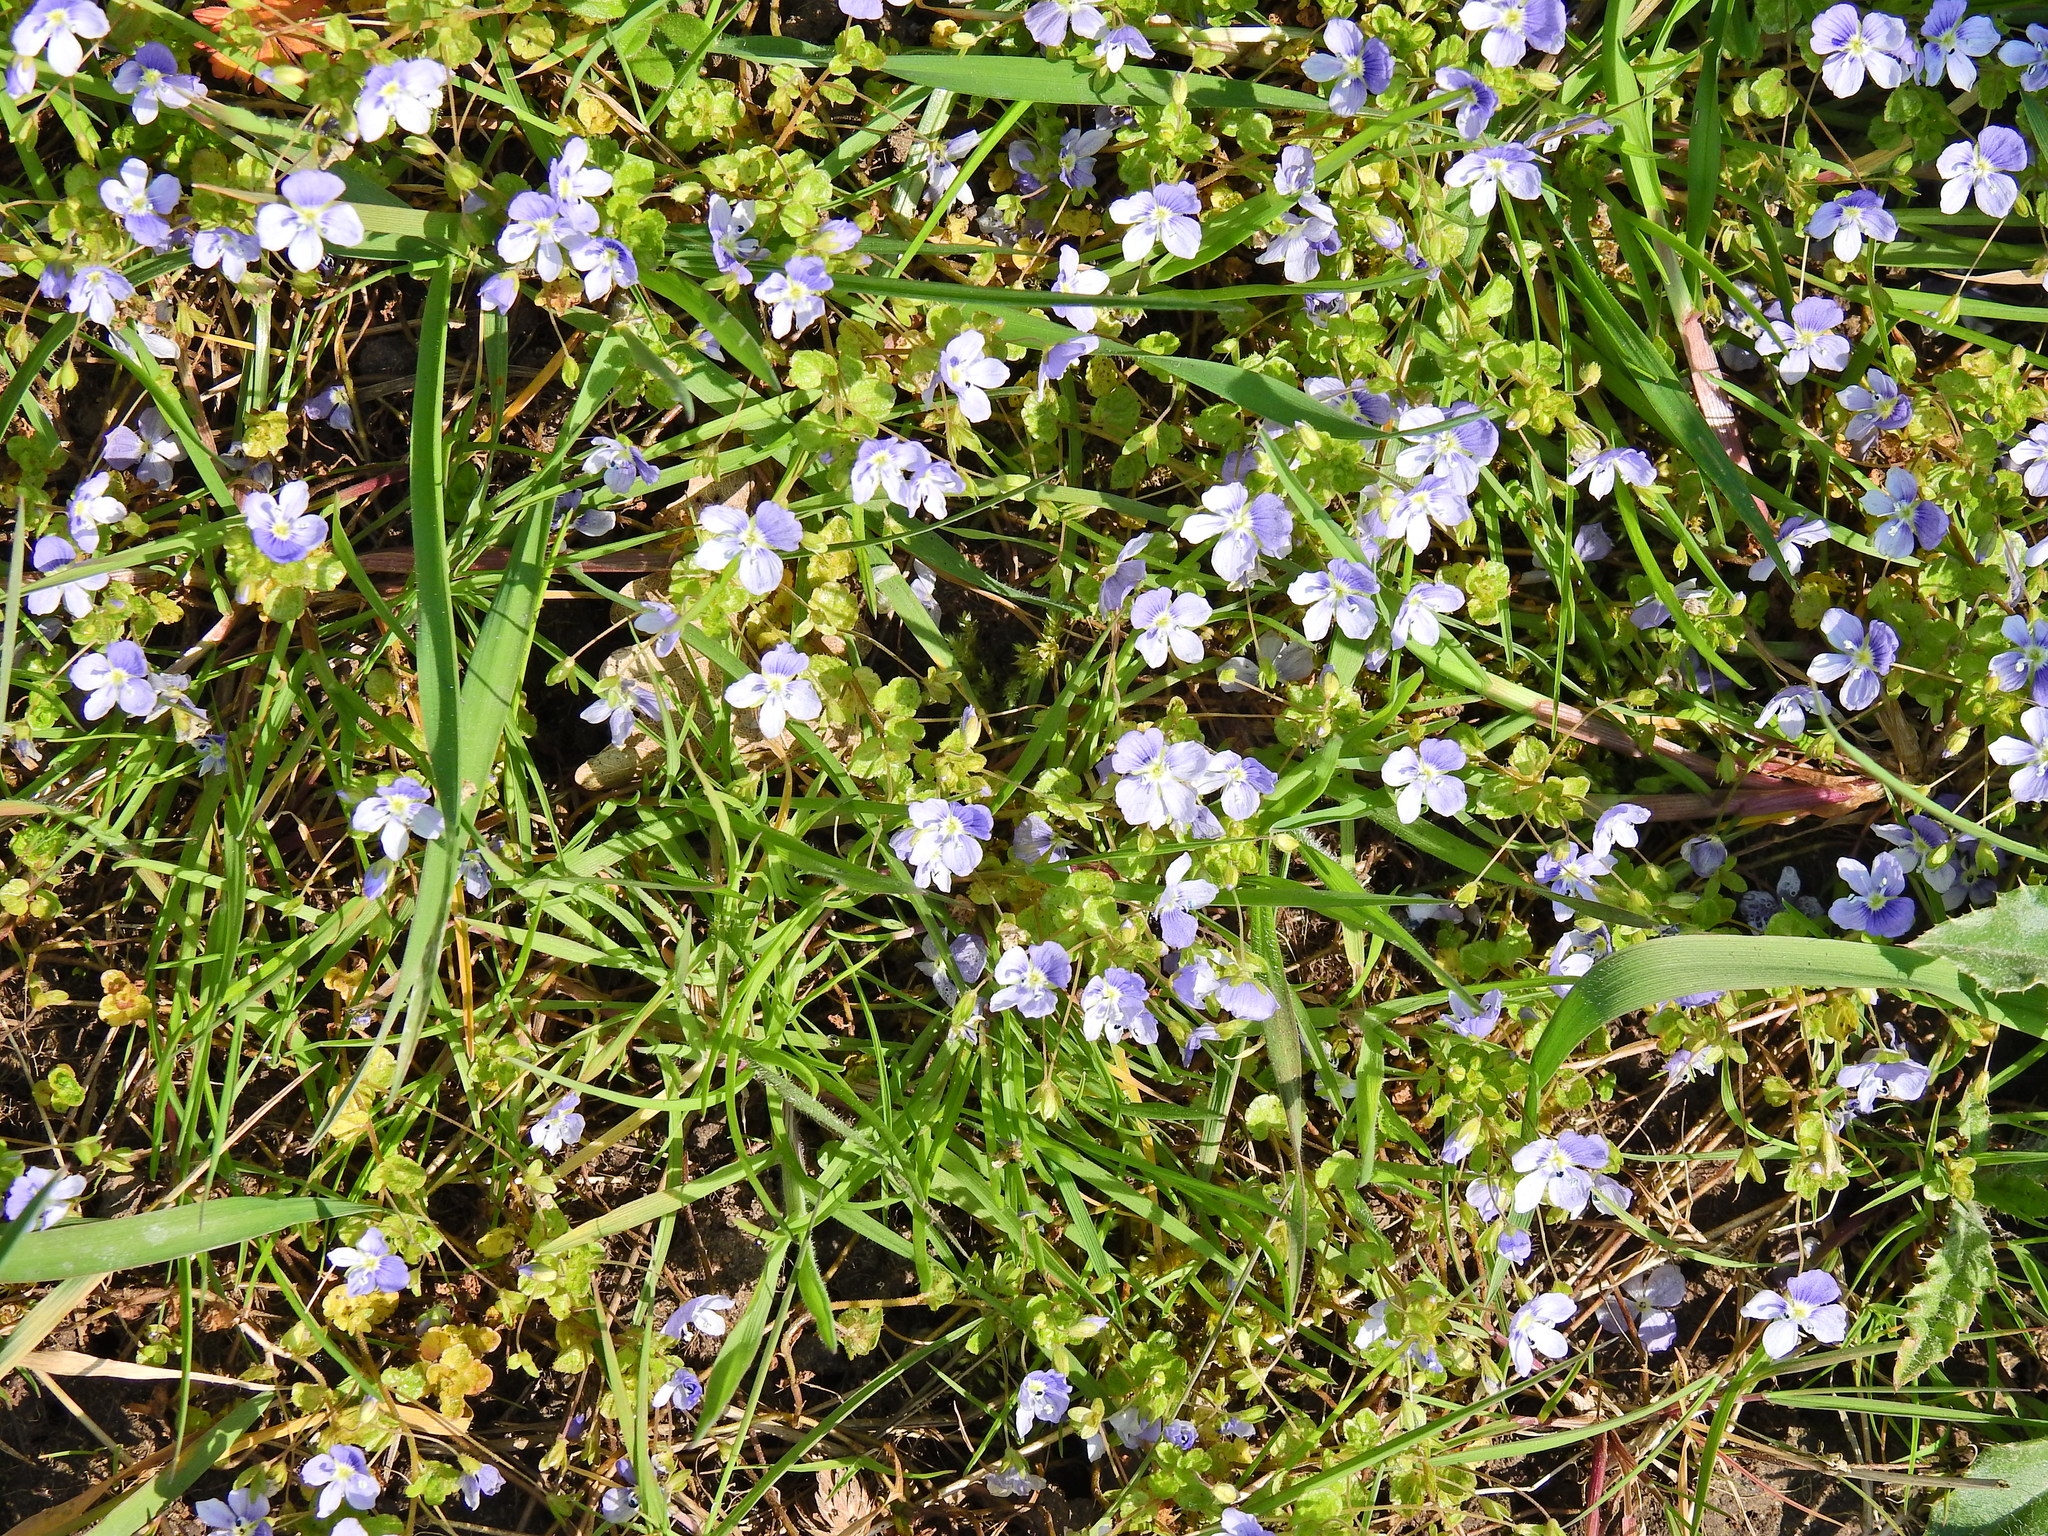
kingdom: Plantae
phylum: Tracheophyta
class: Magnoliopsida
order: Lamiales
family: Plantaginaceae
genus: Veronica
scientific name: Veronica filiformis
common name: Slender speedwell
